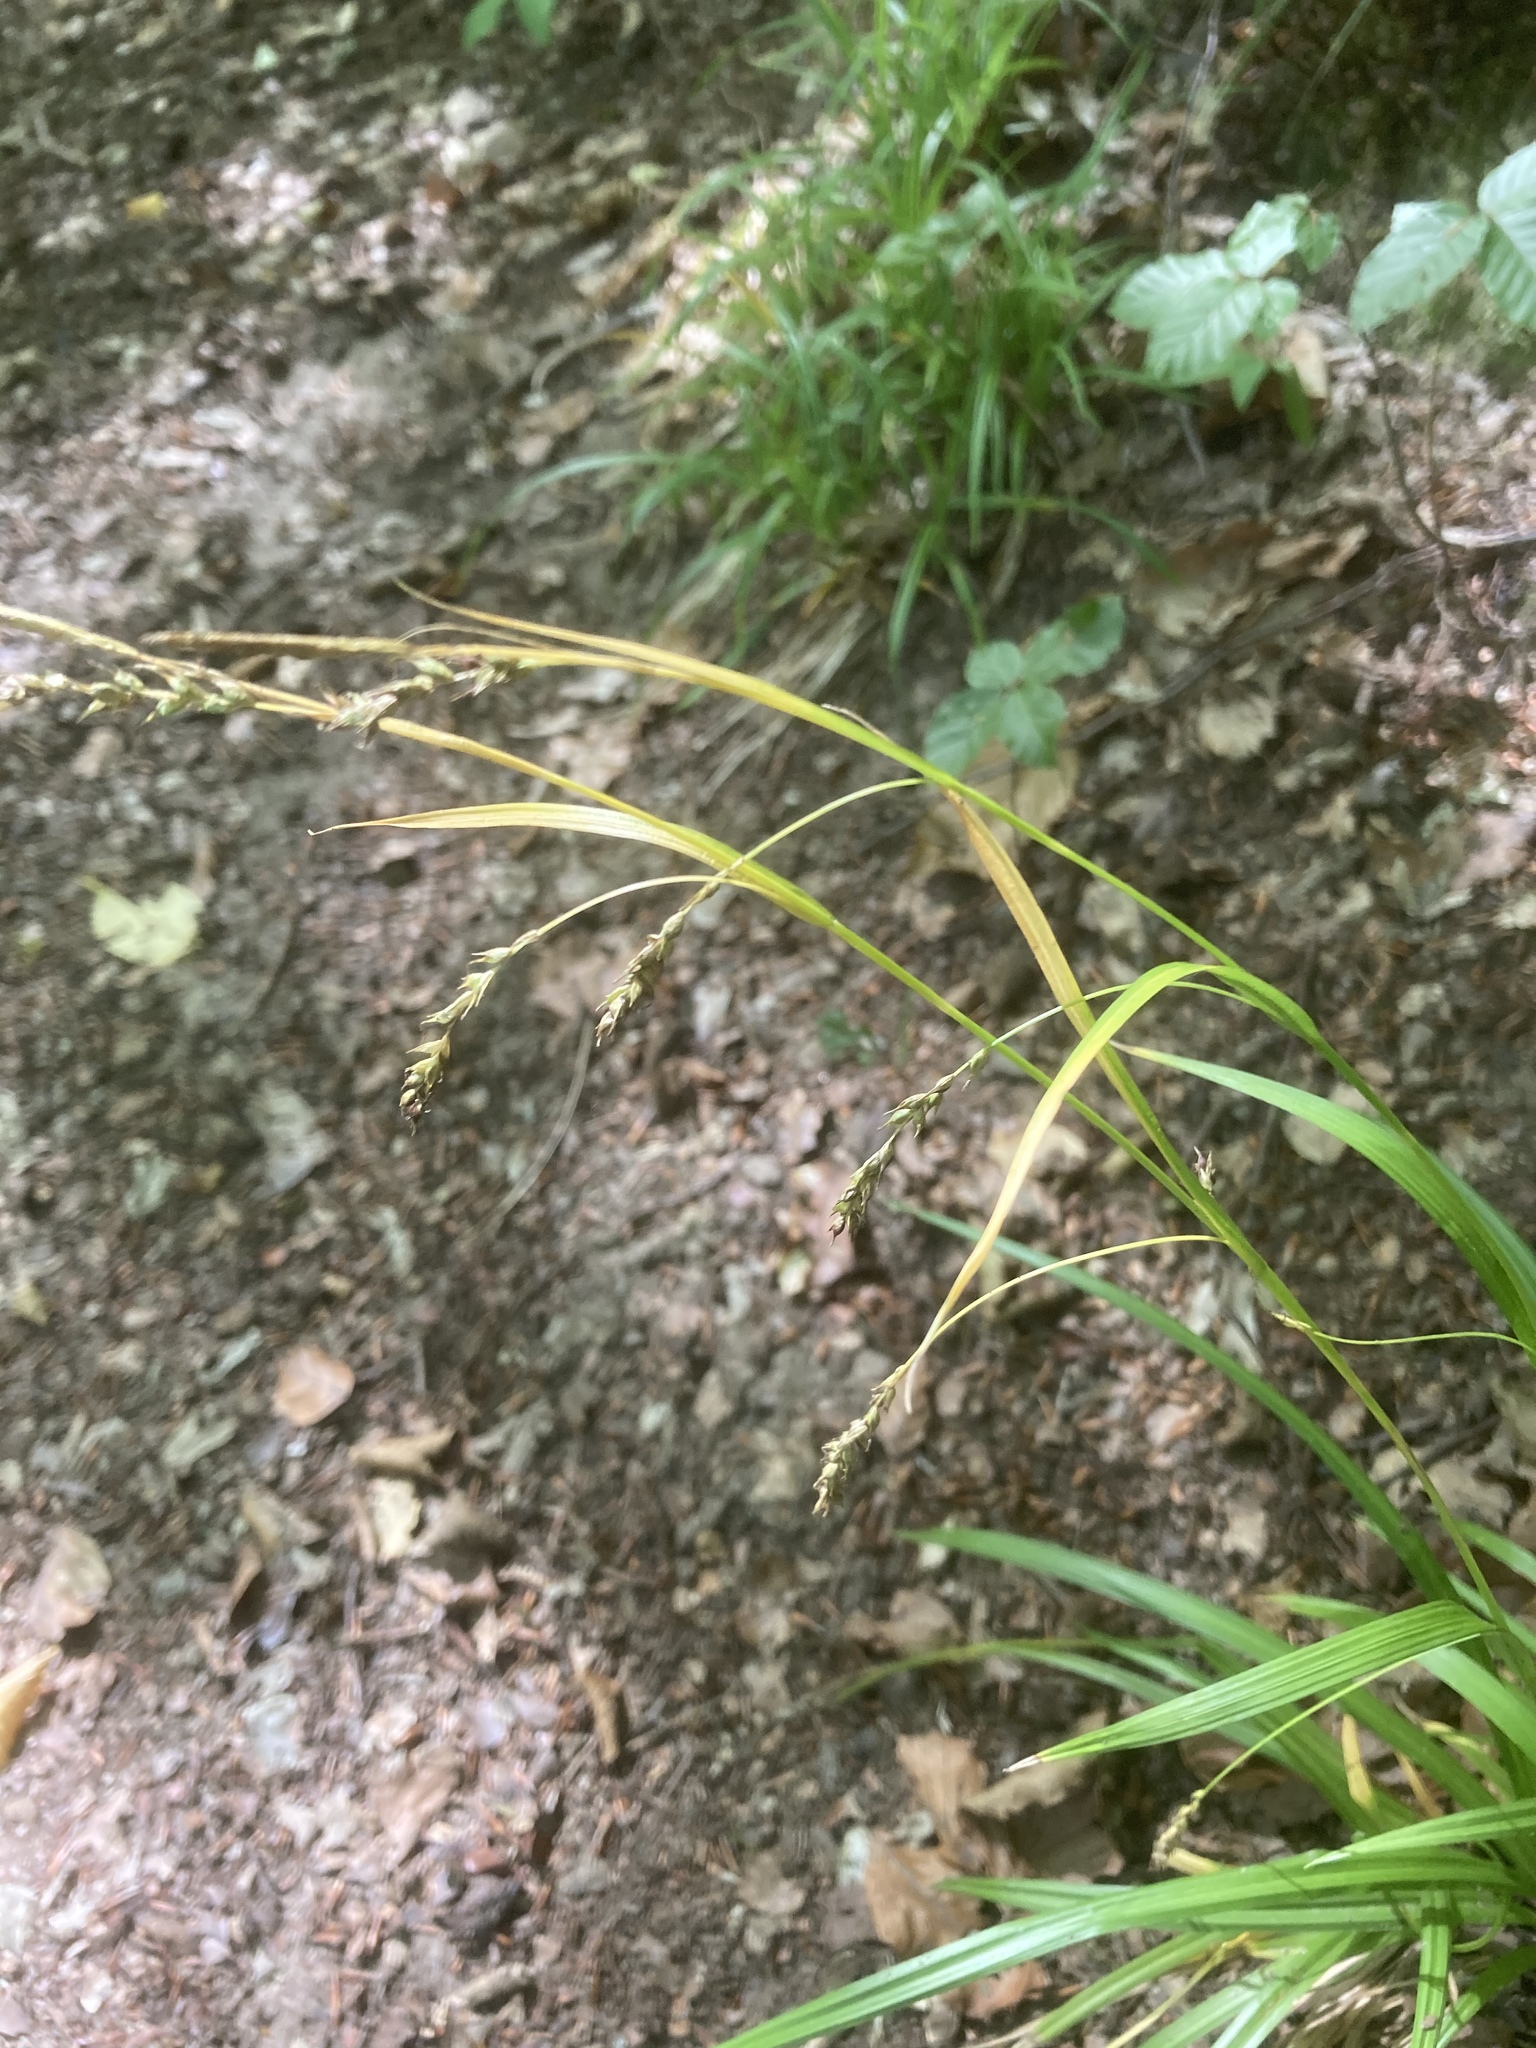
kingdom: Plantae
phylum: Tracheophyta
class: Liliopsida
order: Poales
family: Cyperaceae
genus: Carex
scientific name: Carex sylvatica
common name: Wood-sedge
